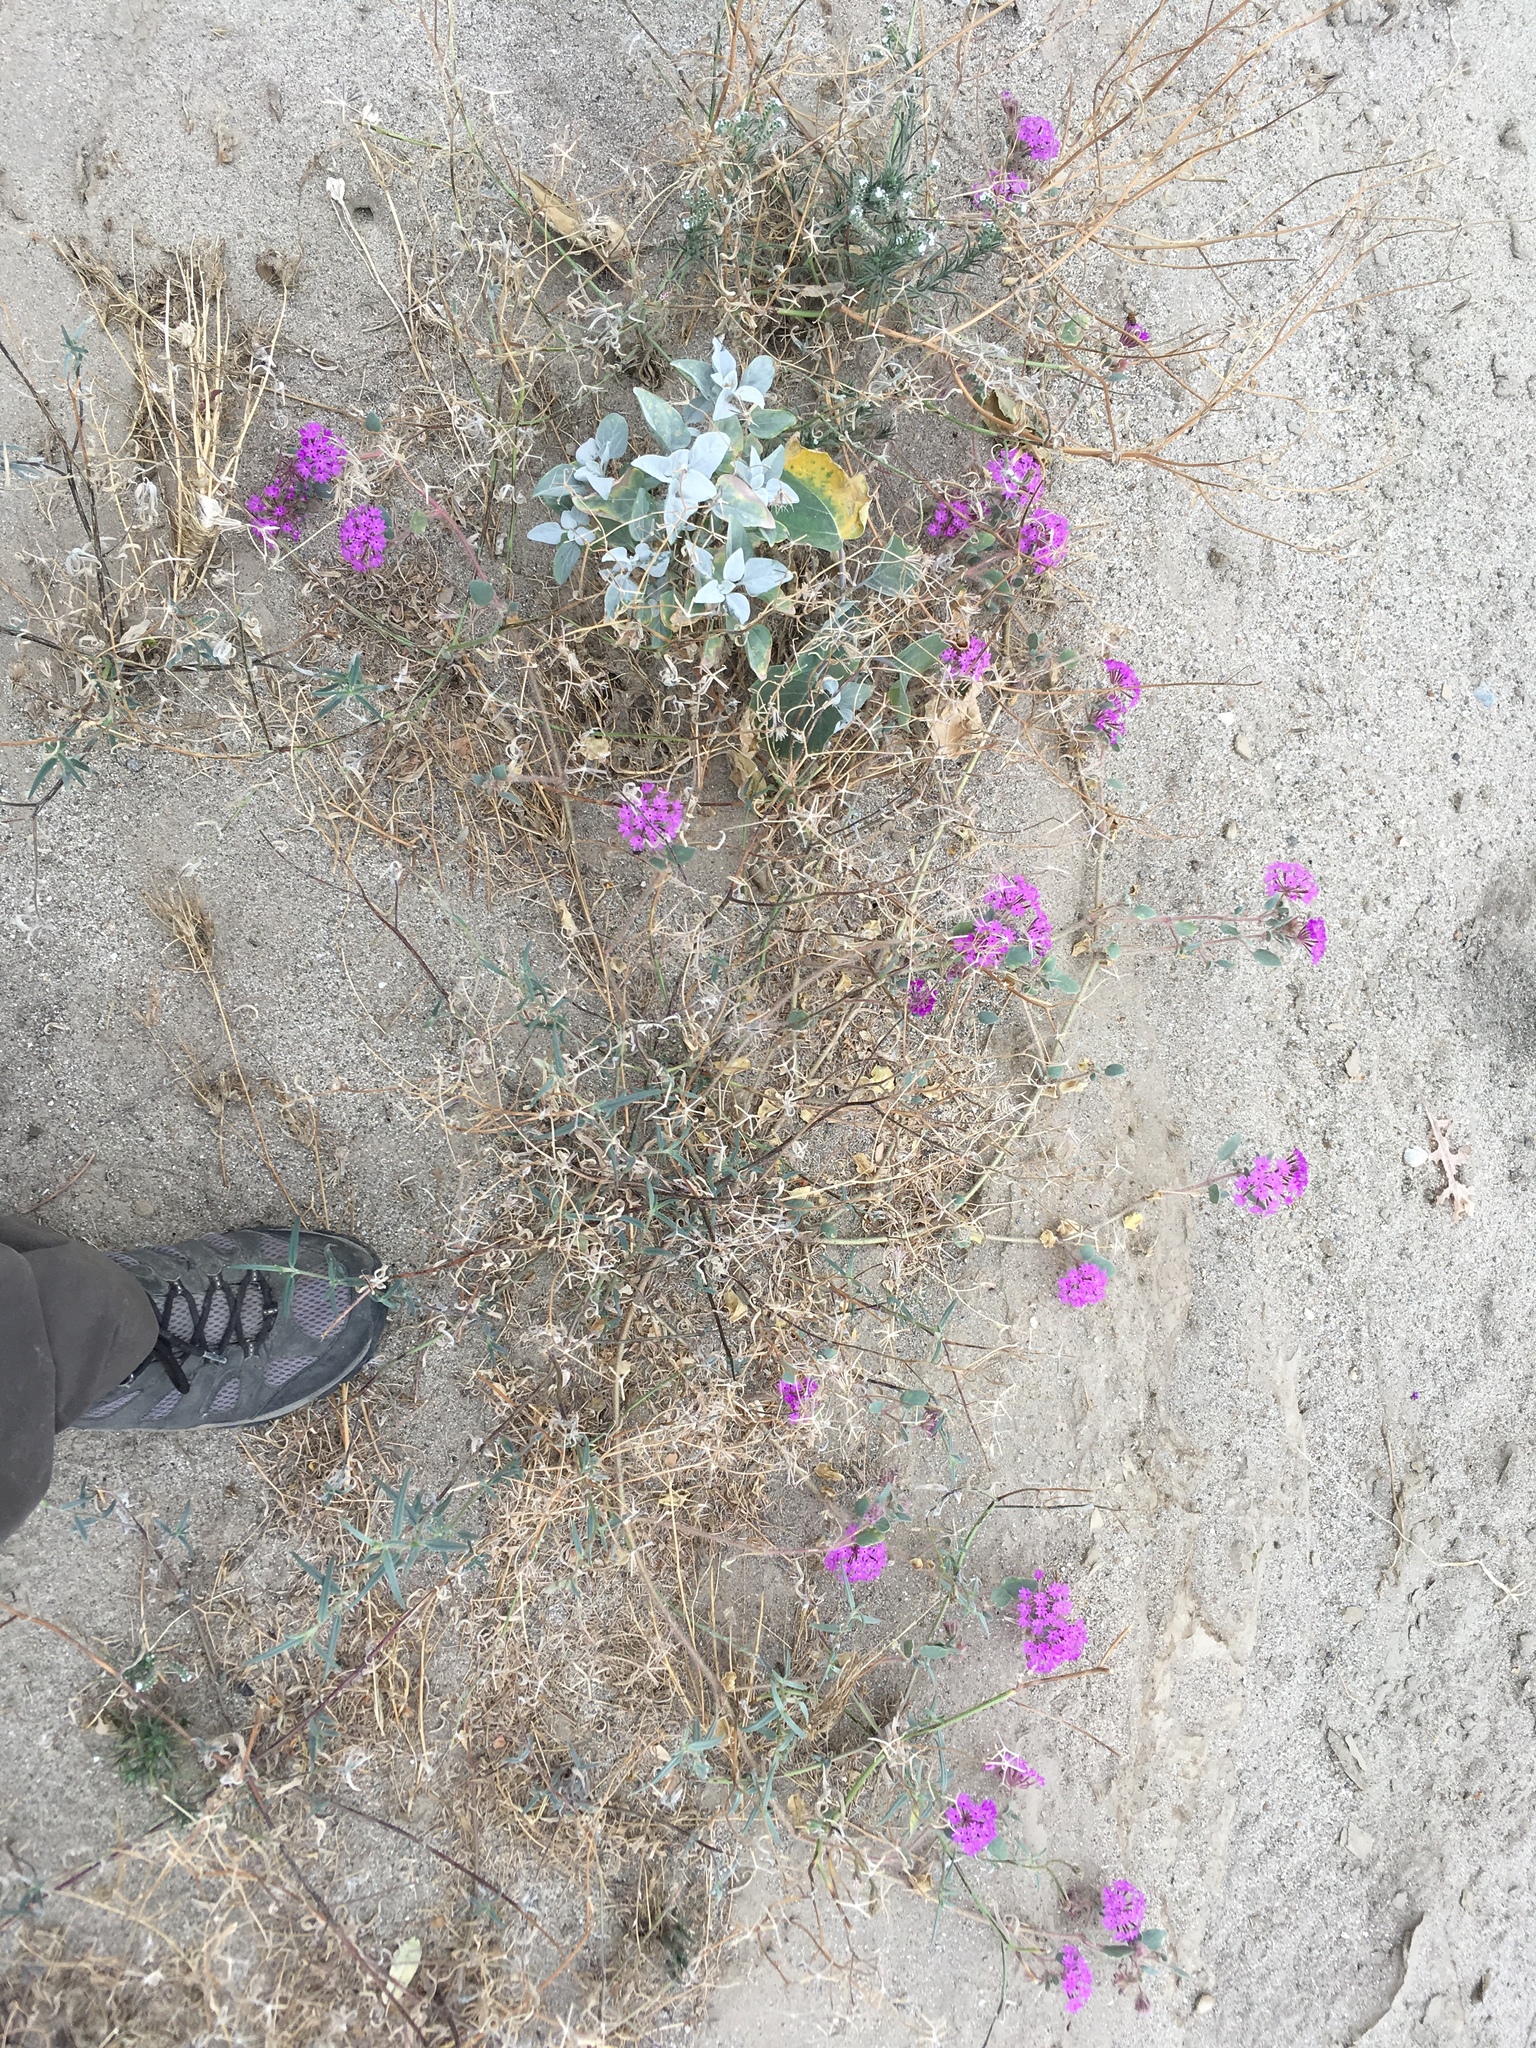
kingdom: Plantae
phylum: Tracheophyta
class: Magnoliopsida
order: Caryophyllales
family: Nyctaginaceae
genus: Abronia
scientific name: Abronia villosa
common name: Desert sand-verbena
